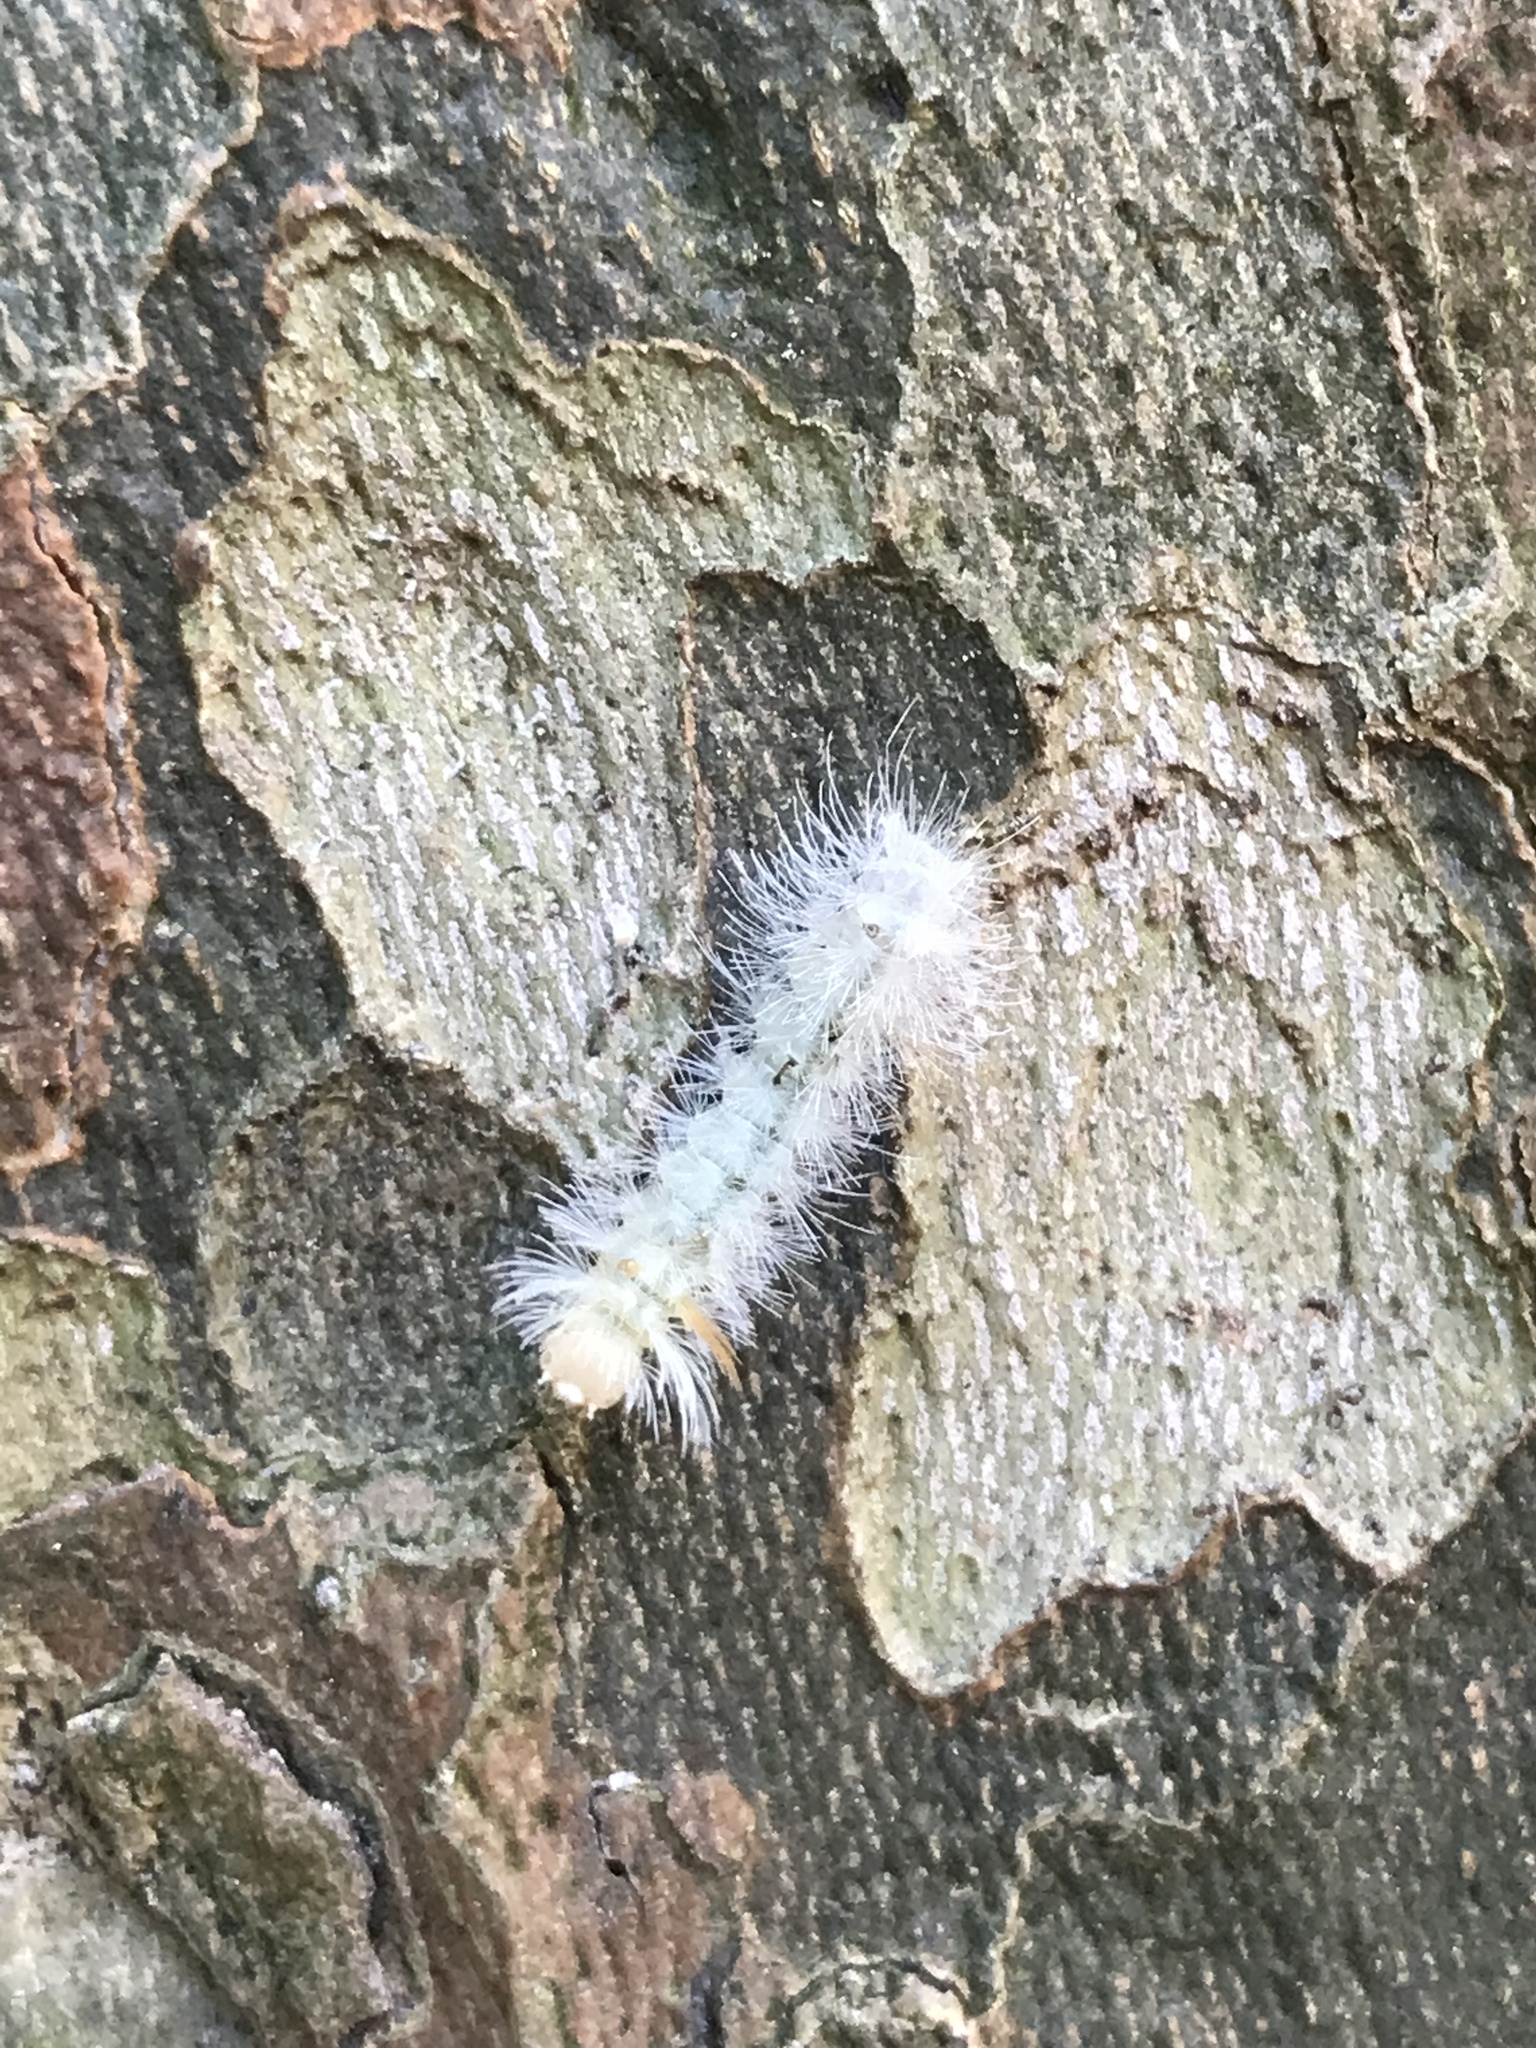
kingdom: Animalia
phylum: Arthropoda
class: Insecta
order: Lepidoptera
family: Erebidae
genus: Halysidota
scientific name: Halysidota harrisii
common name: Sycamore tussock moth
